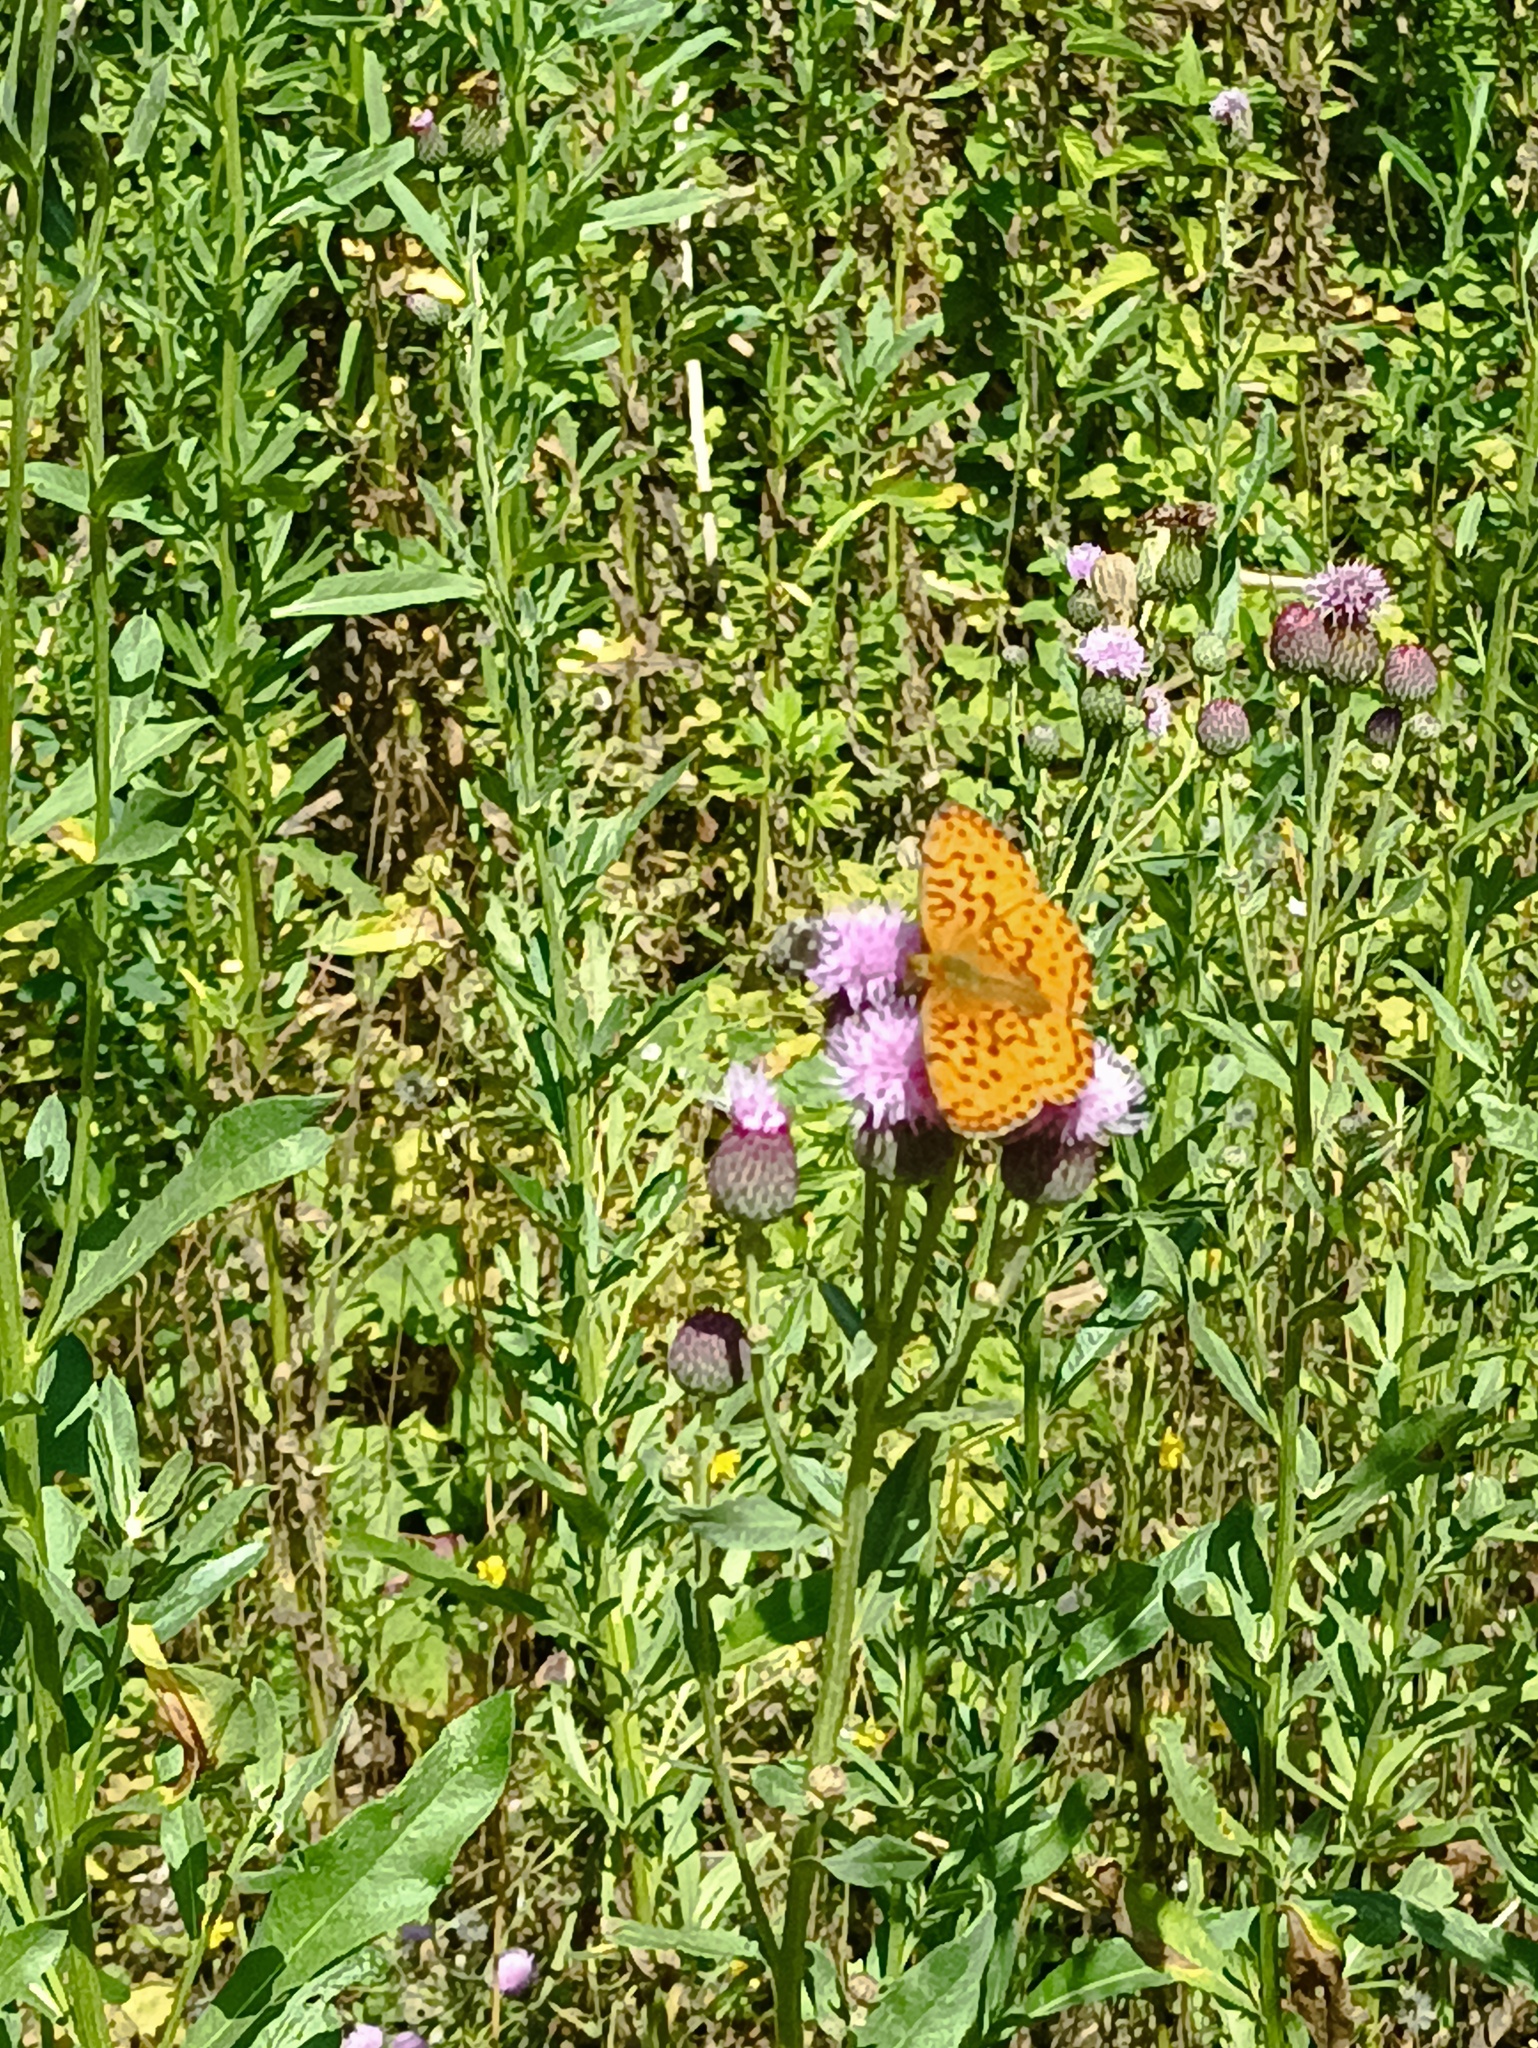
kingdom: Animalia
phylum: Arthropoda
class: Insecta
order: Lepidoptera
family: Nymphalidae
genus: Brenthis
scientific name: Brenthis daphne
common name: Marbled fritillary
